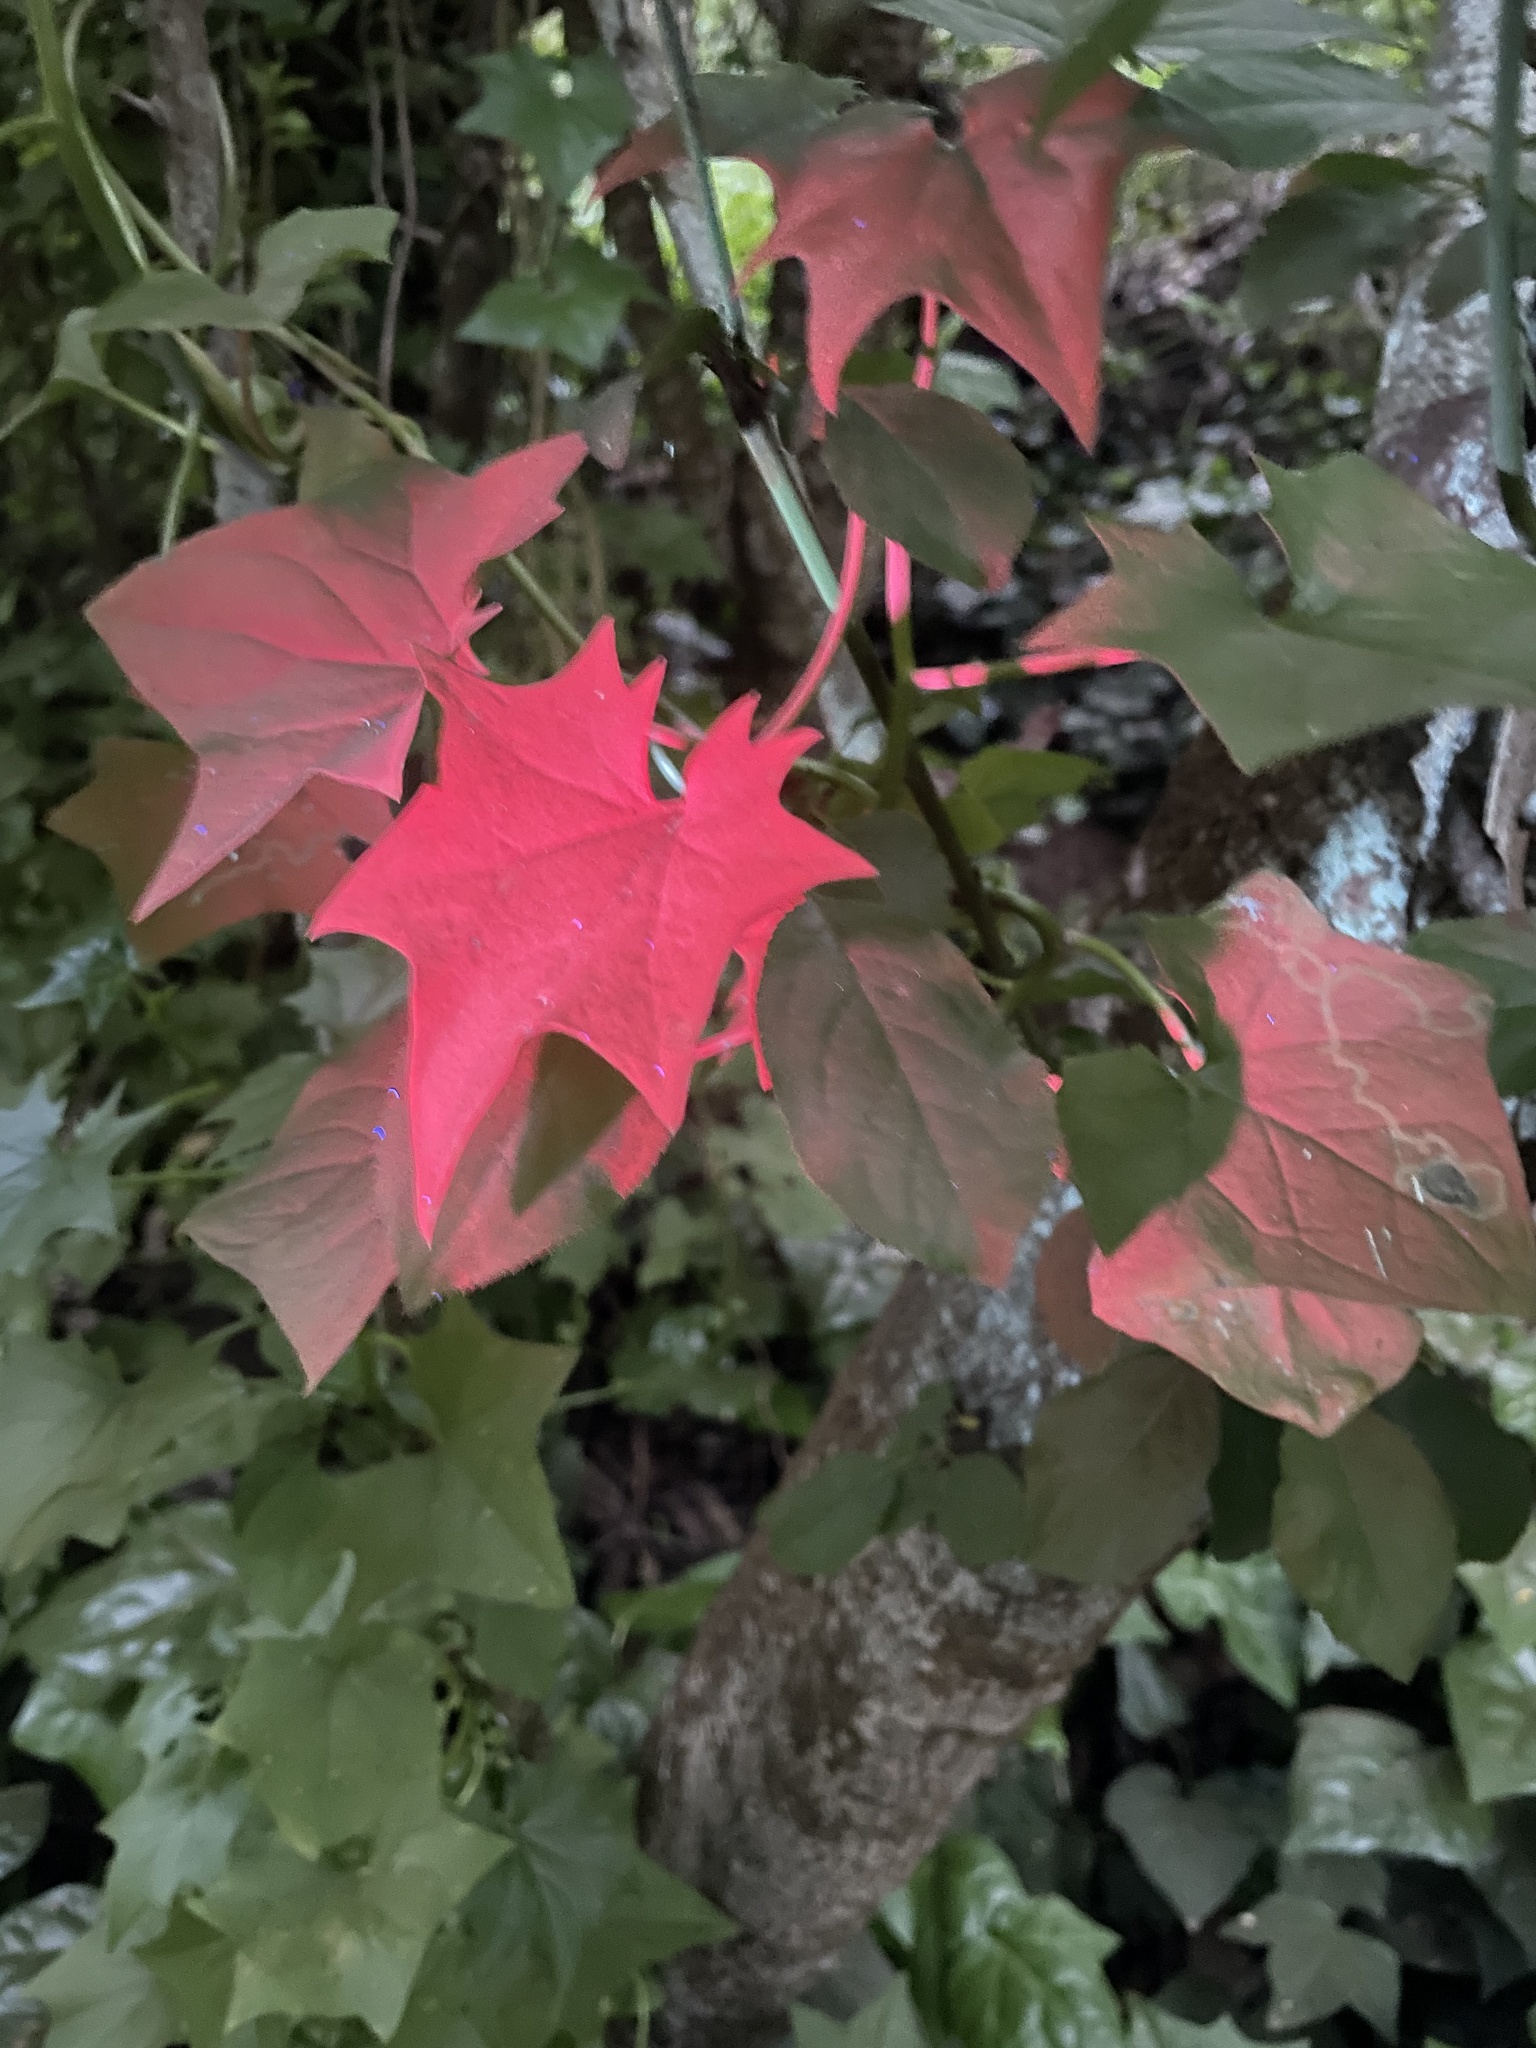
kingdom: Plantae
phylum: Tracheophyta
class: Magnoliopsida
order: Asterales
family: Asteraceae
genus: Delairea
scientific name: Delairea odorata
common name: Cape-ivy
